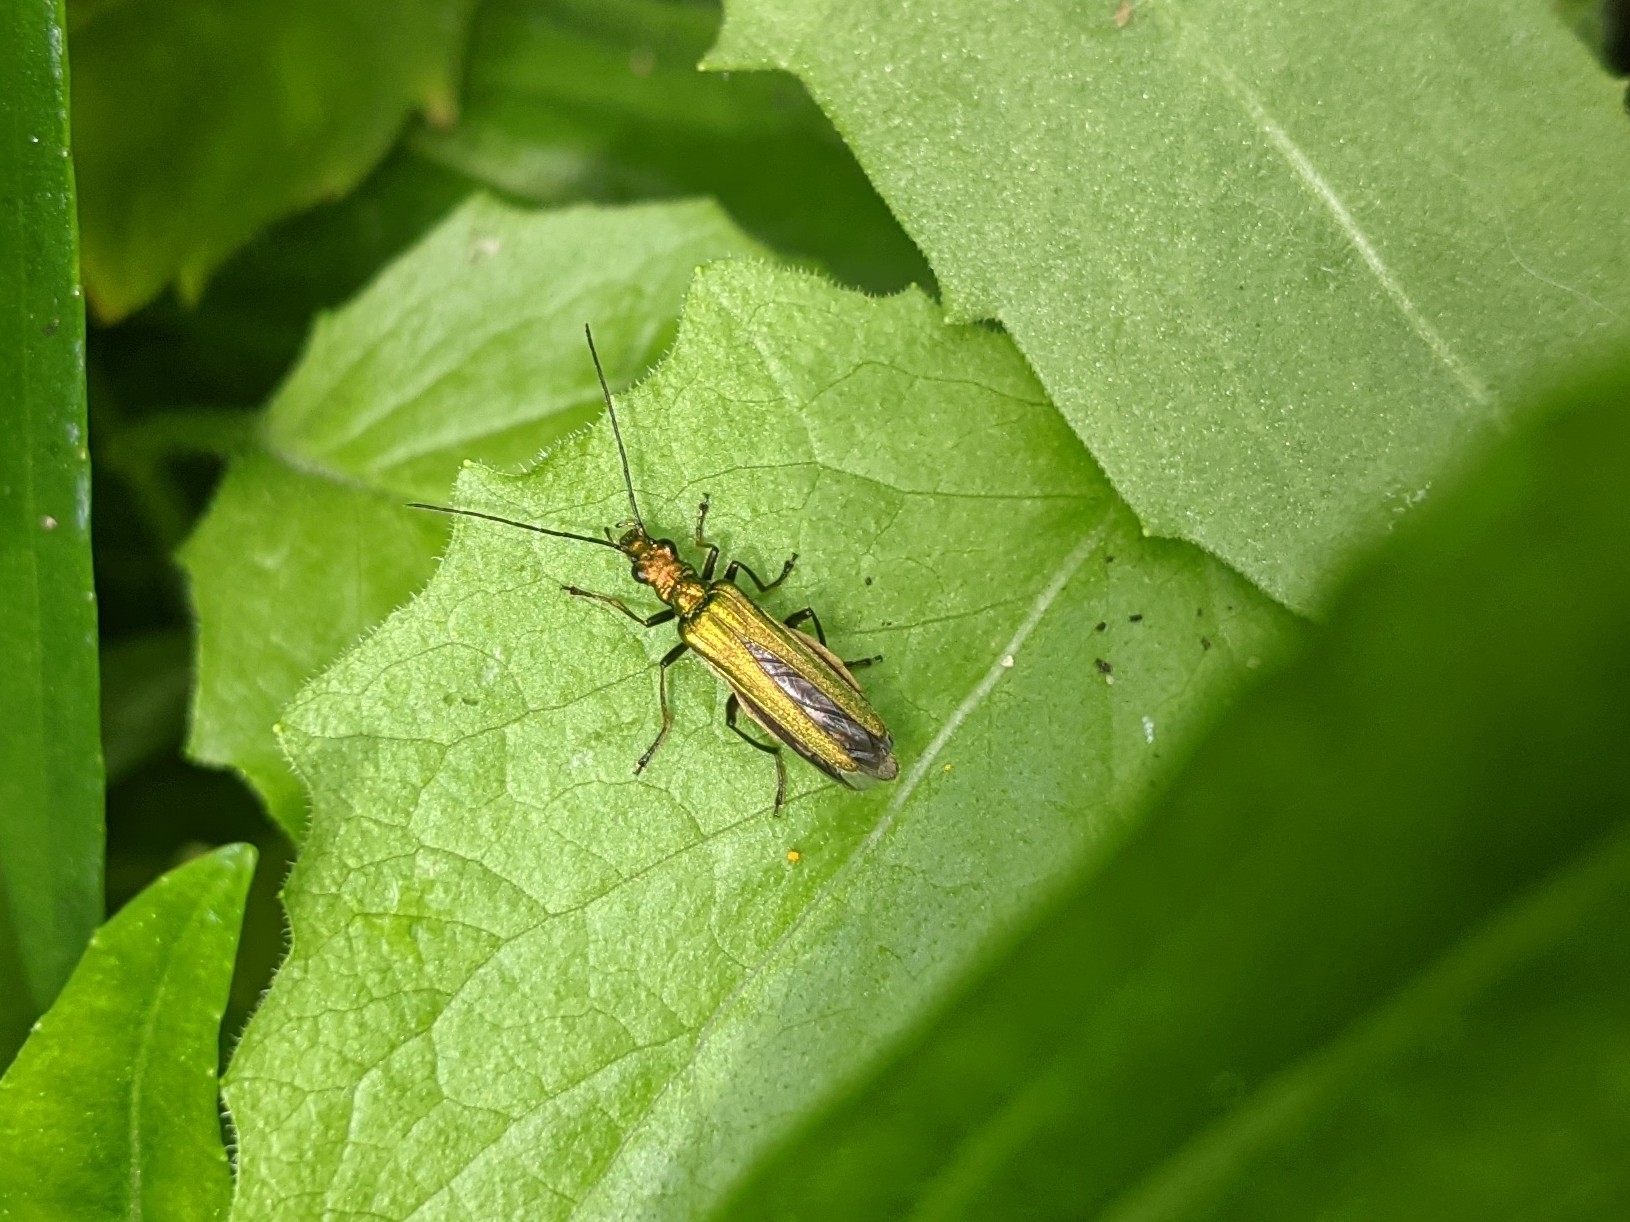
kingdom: Animalia
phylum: Arthropoda
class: Insecta
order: Coleoptera
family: Oedemeridae
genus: Oedemera
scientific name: Oedemera nobilis
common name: Swollen-thighed beetle
